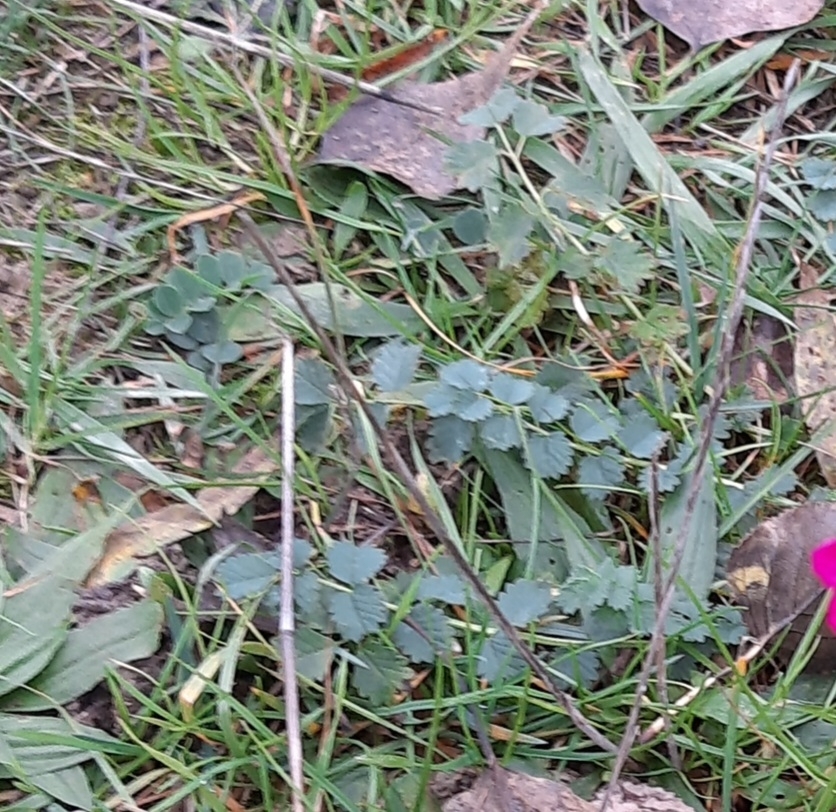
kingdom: Plantae
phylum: Tracheophyta
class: Magnoliopsida
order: Rosales
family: Rosaceae
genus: Poterium
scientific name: Poterium sanguisorba
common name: Salad burnet
